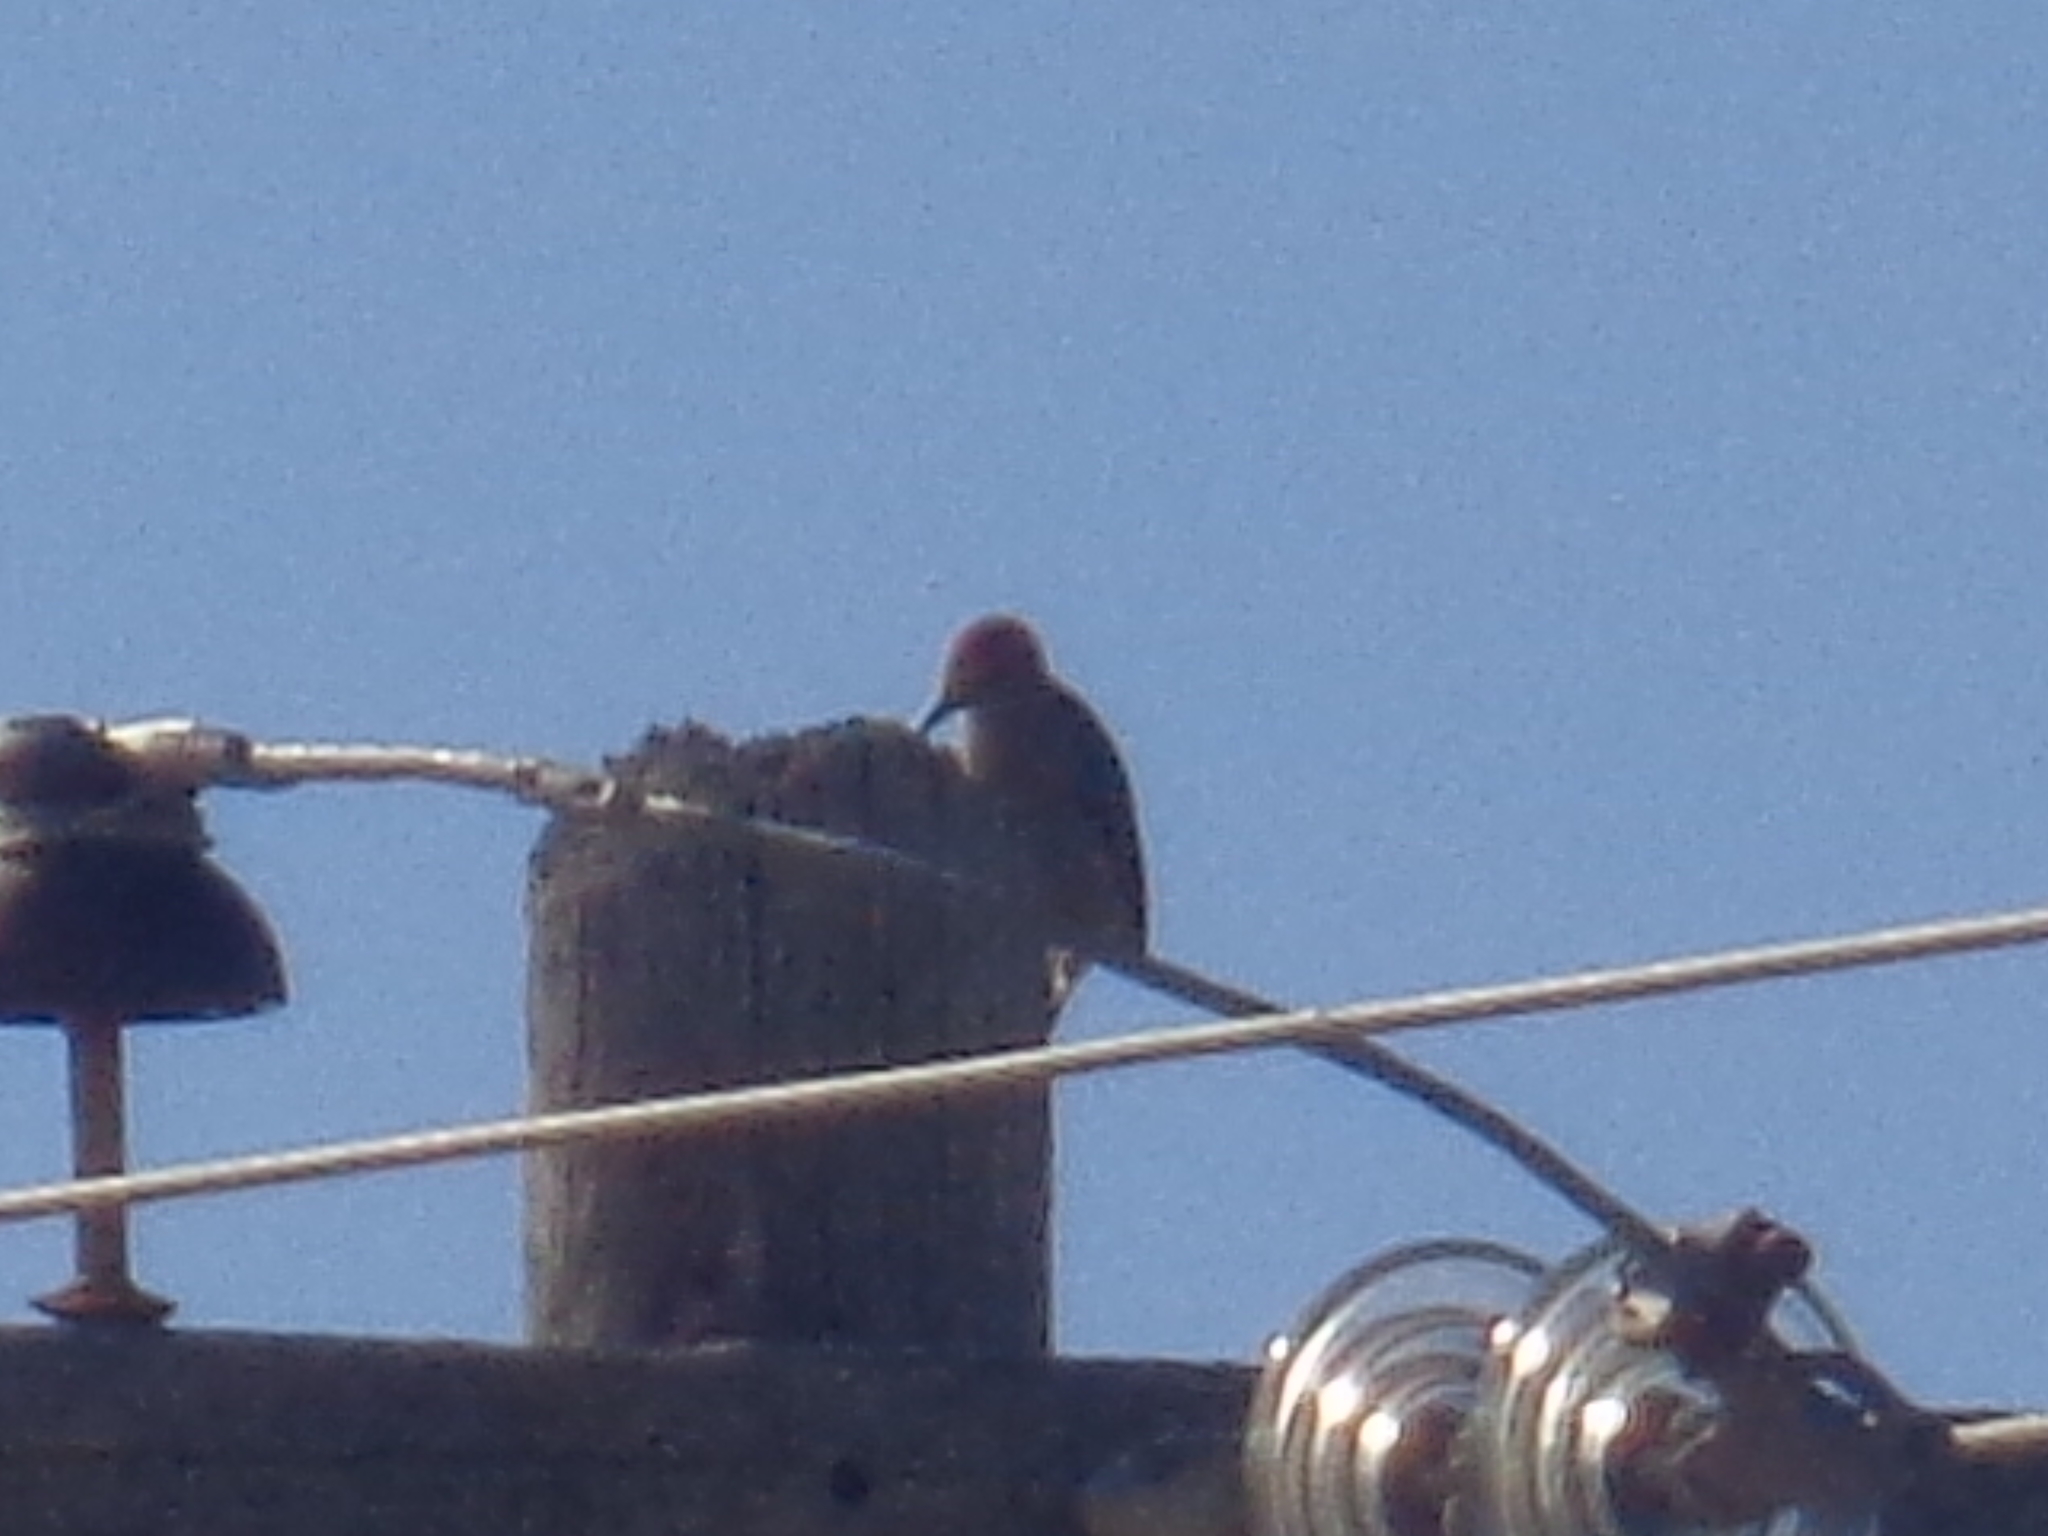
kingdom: Animalia
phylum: Chordata
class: Aves
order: Piciformes
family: Picidae
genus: Melanerpes
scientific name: Melanerpes aurifrons
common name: Golden-fronted woodpecker
